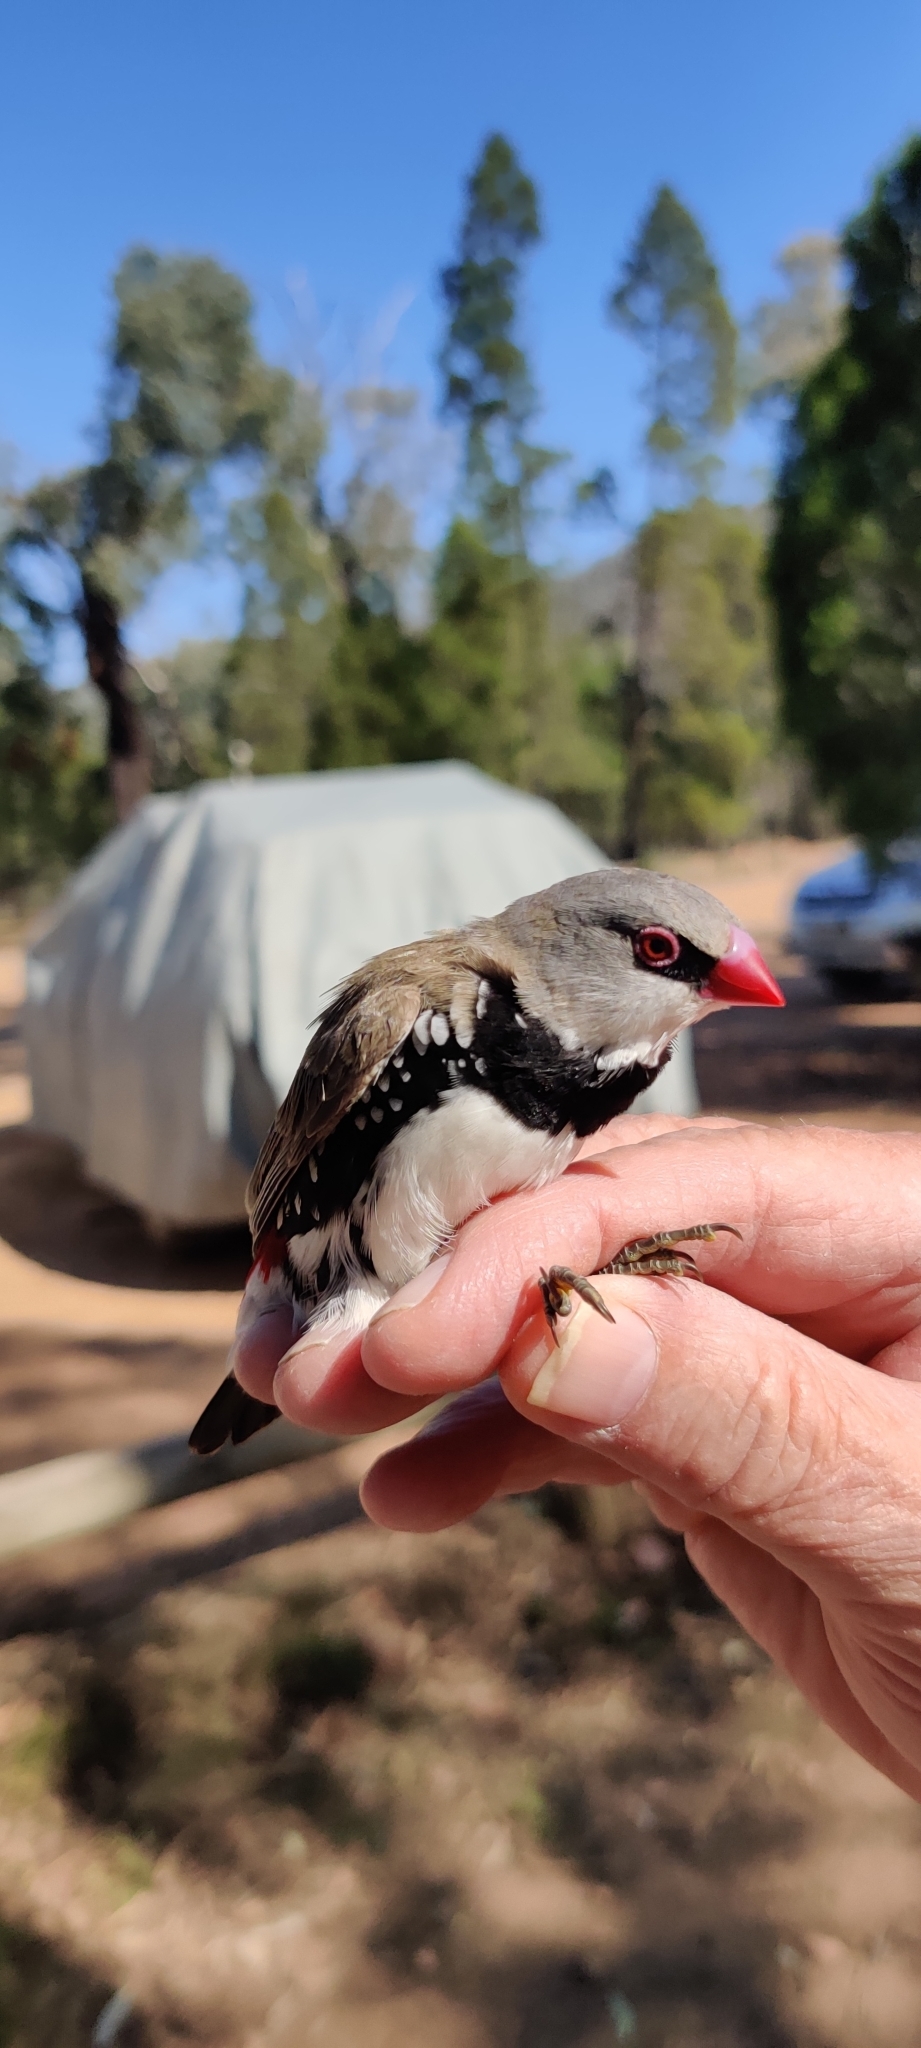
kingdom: Animalia
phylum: Chordata
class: Aves
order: Passeriformes
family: Estrildidae
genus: Stagonopleura
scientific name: Stagonopleura guttata
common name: Diamond firetail
